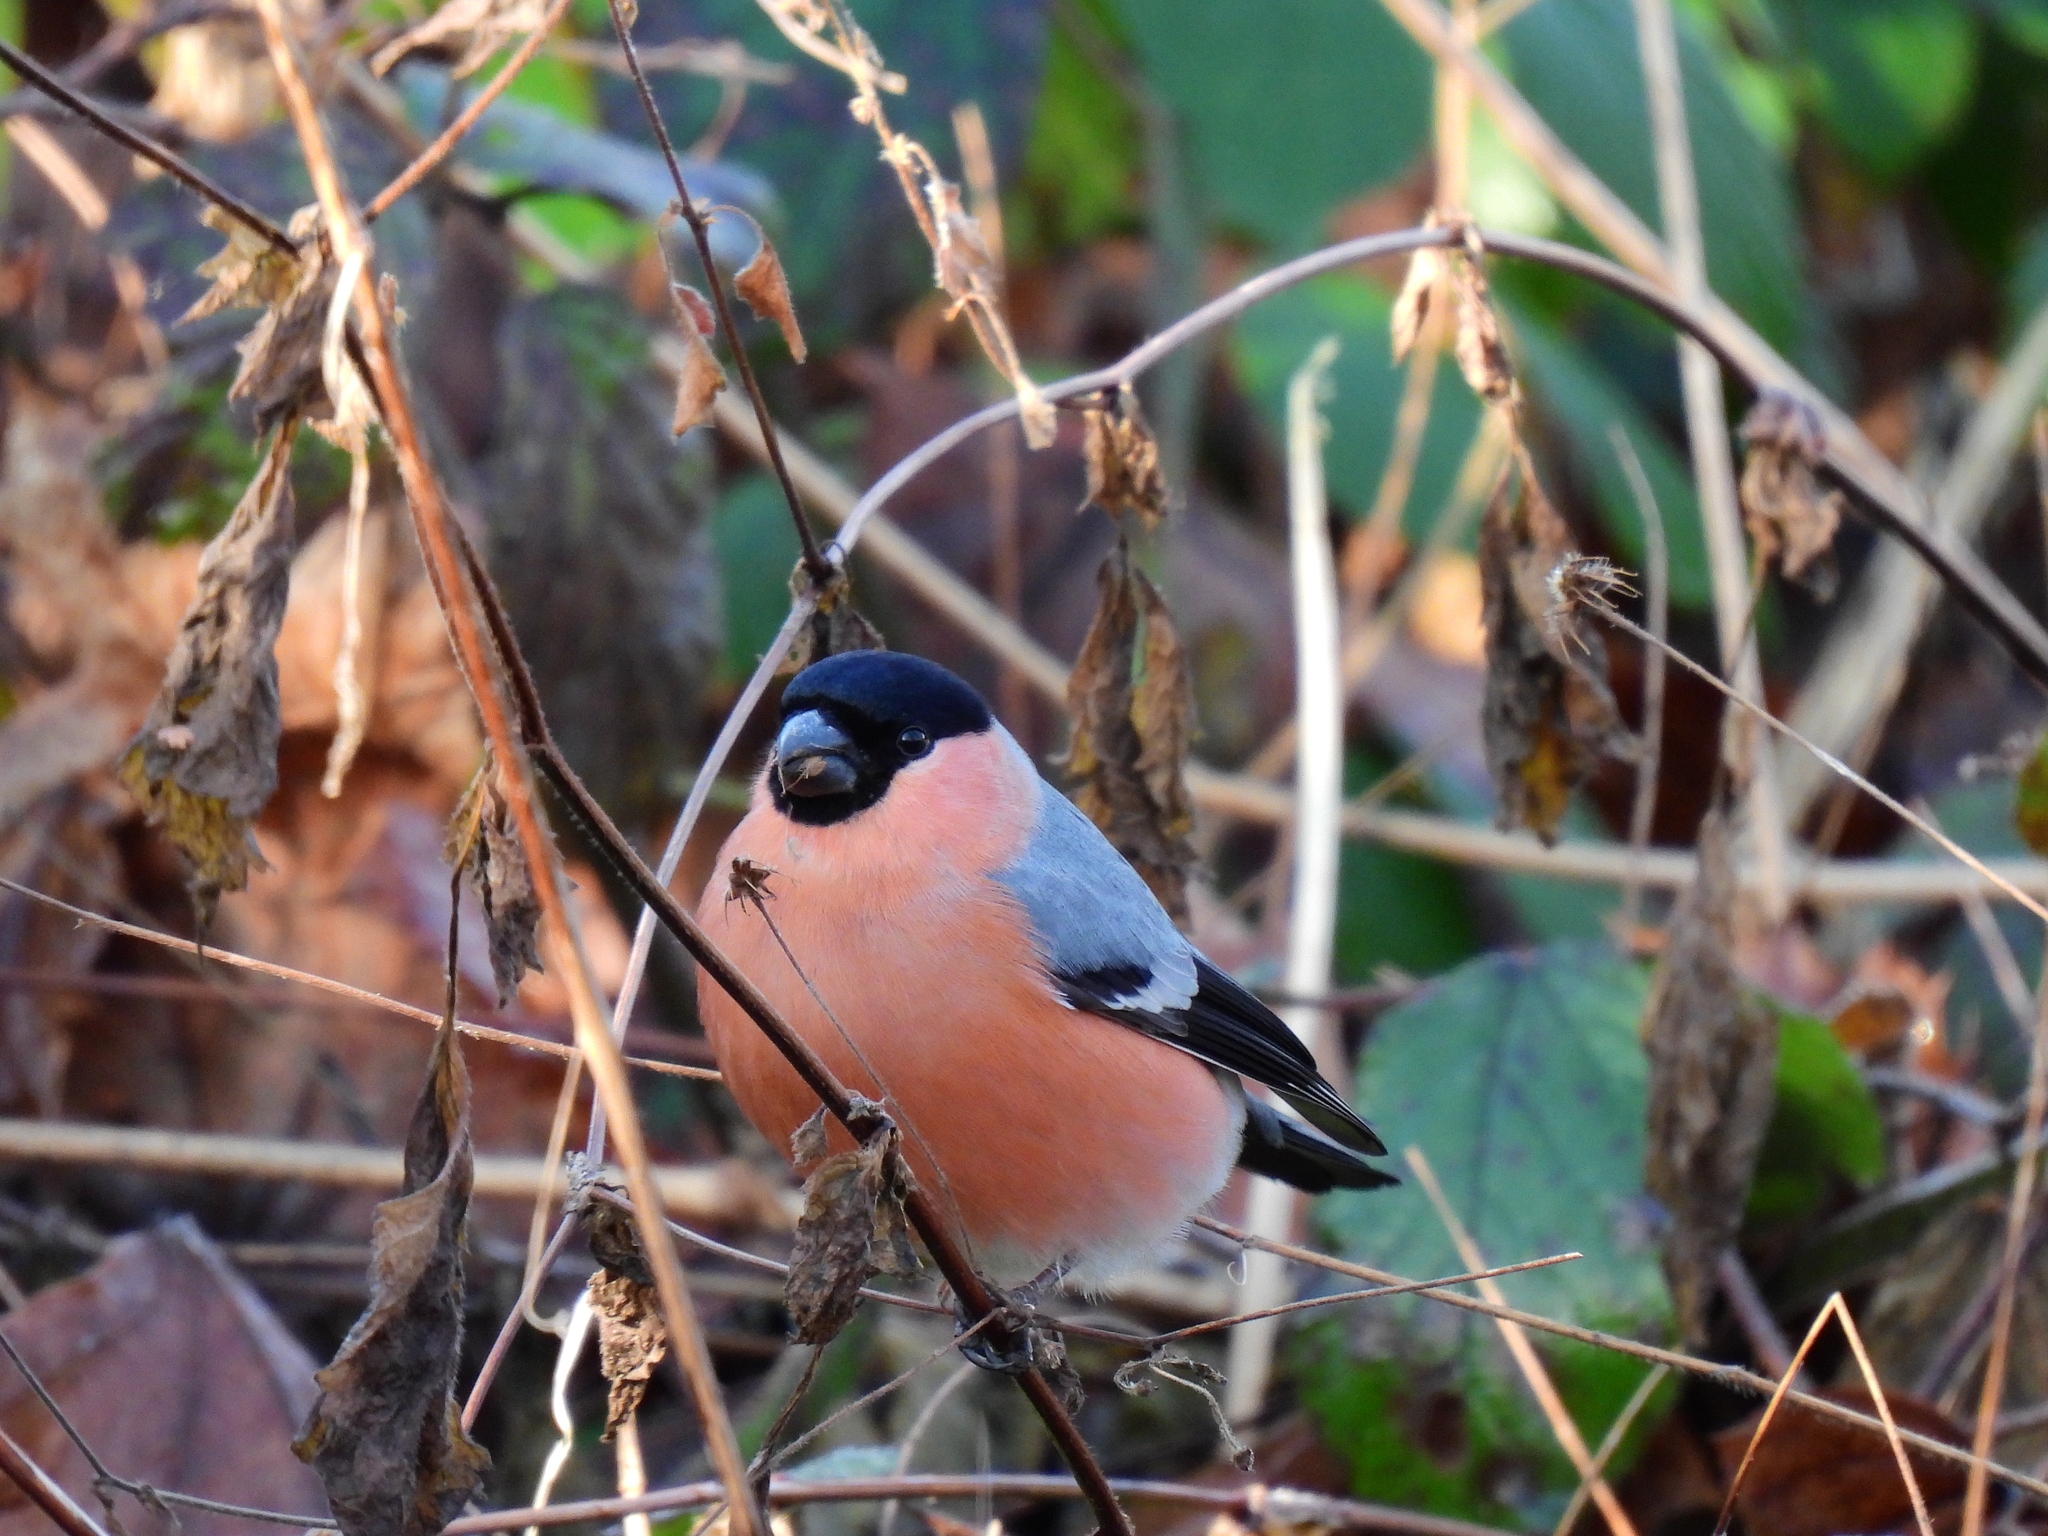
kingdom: Animalia
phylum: Chordata
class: Aves
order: Passeriformes
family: Fringillidae
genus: Pyrrhula
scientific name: Pyrrhula pyrrhula
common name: Eurasian bullfinch
